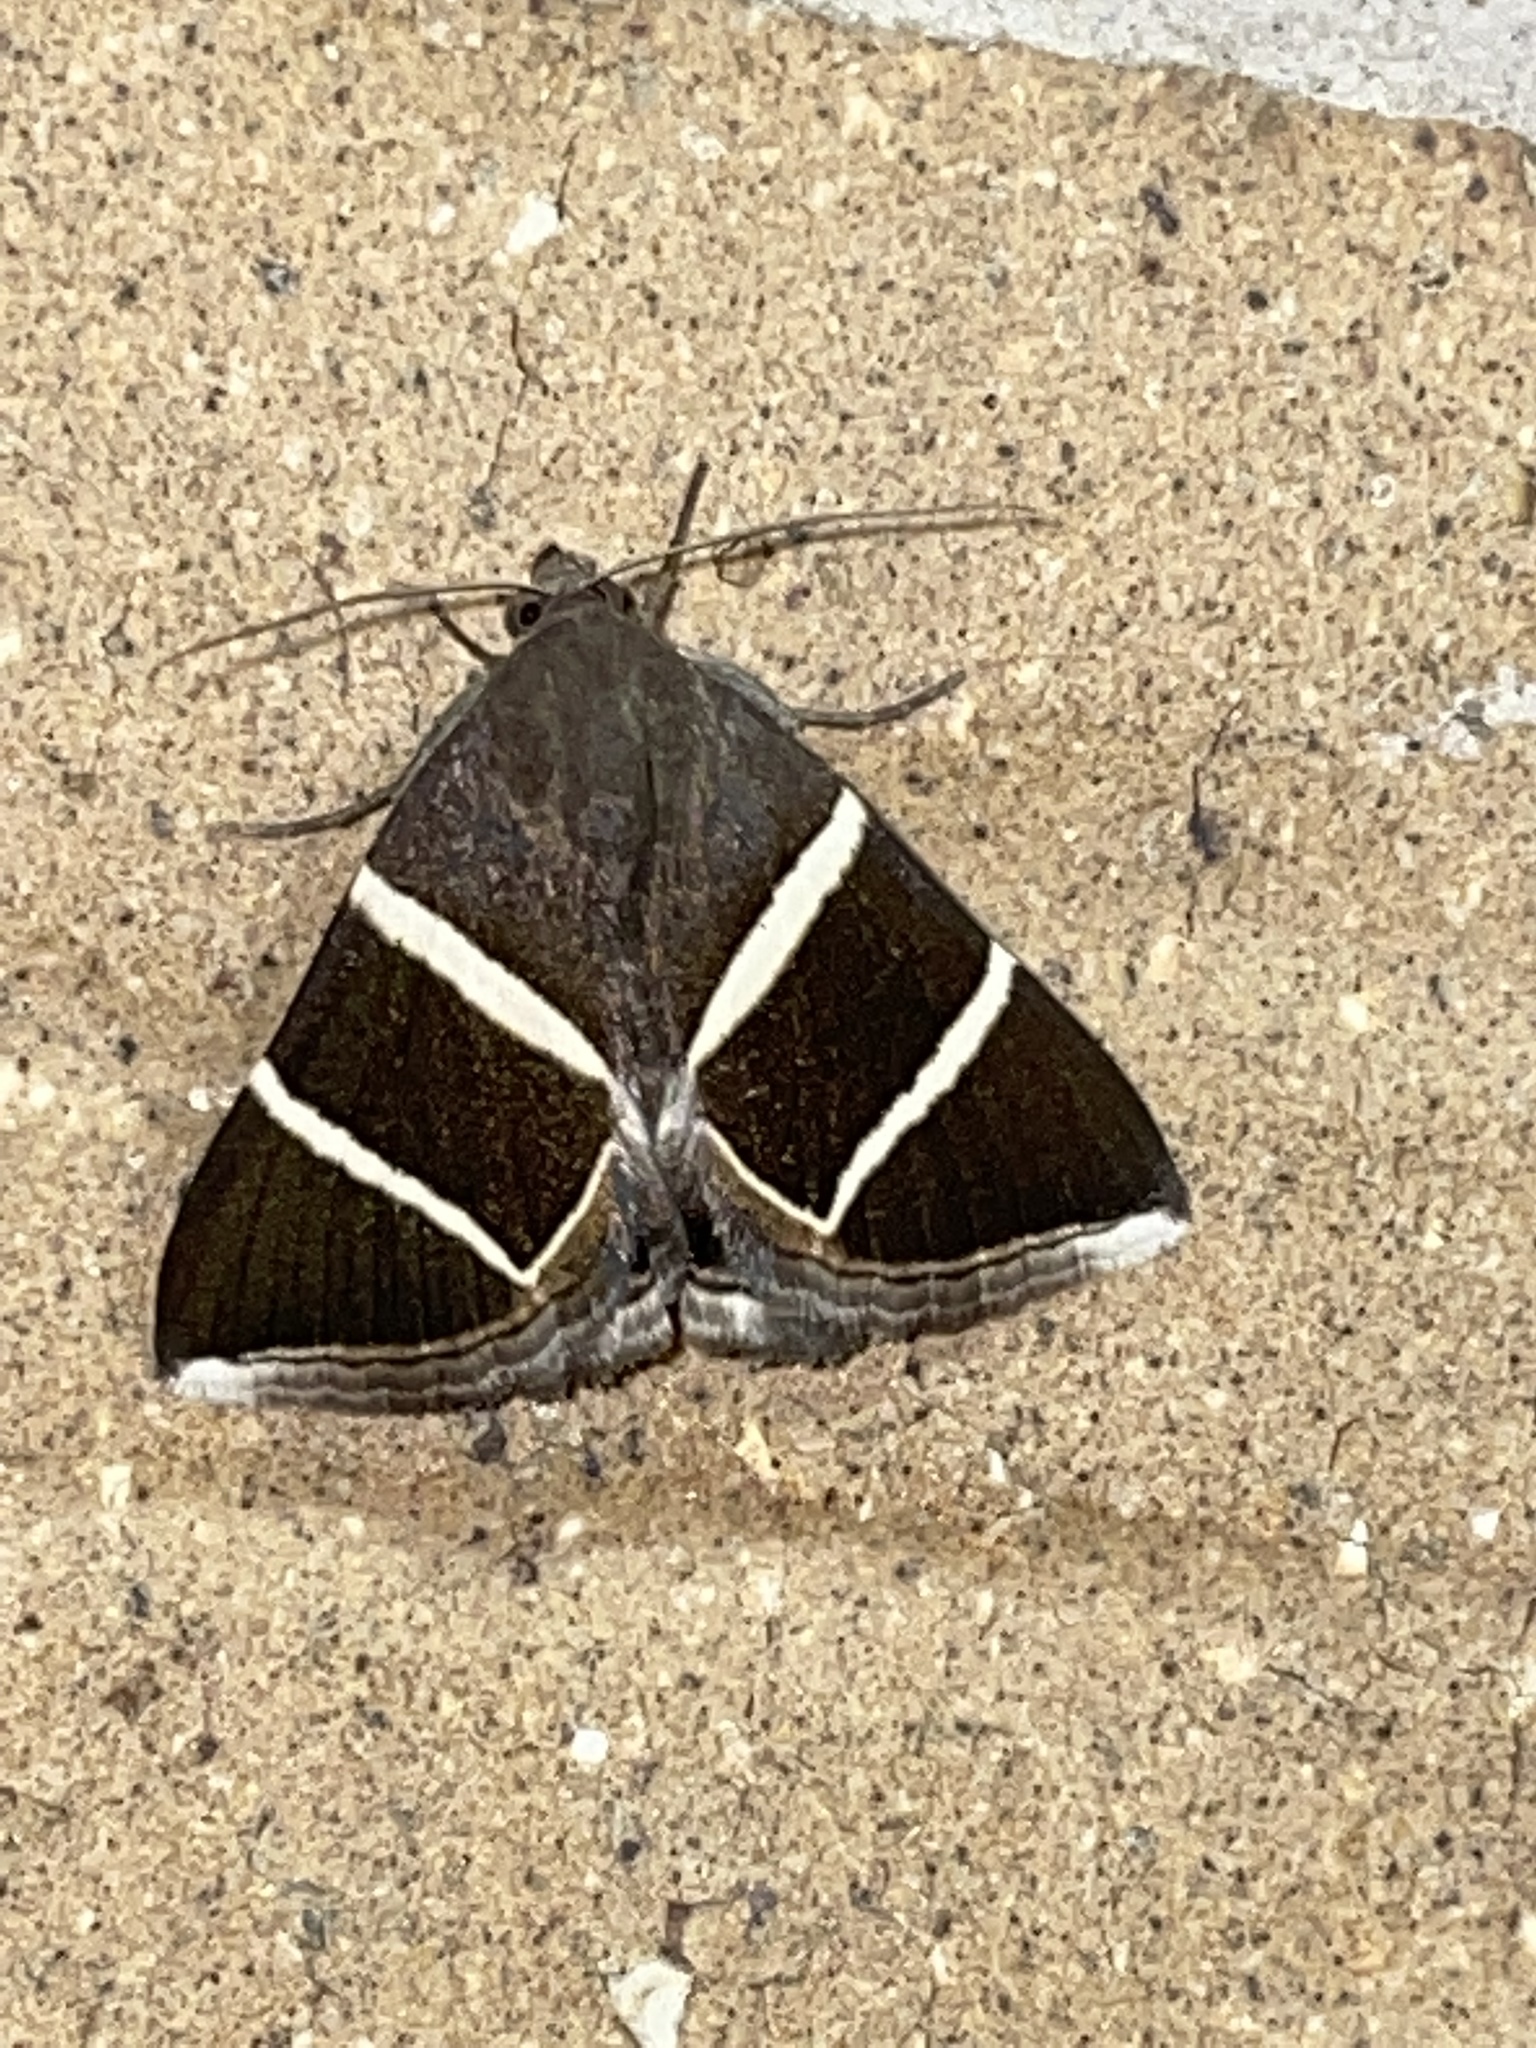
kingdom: Animalia
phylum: Arthropoda
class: Insecta
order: Lepidoptera
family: Erebidae
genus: Grammodes
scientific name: Grammodes justa
